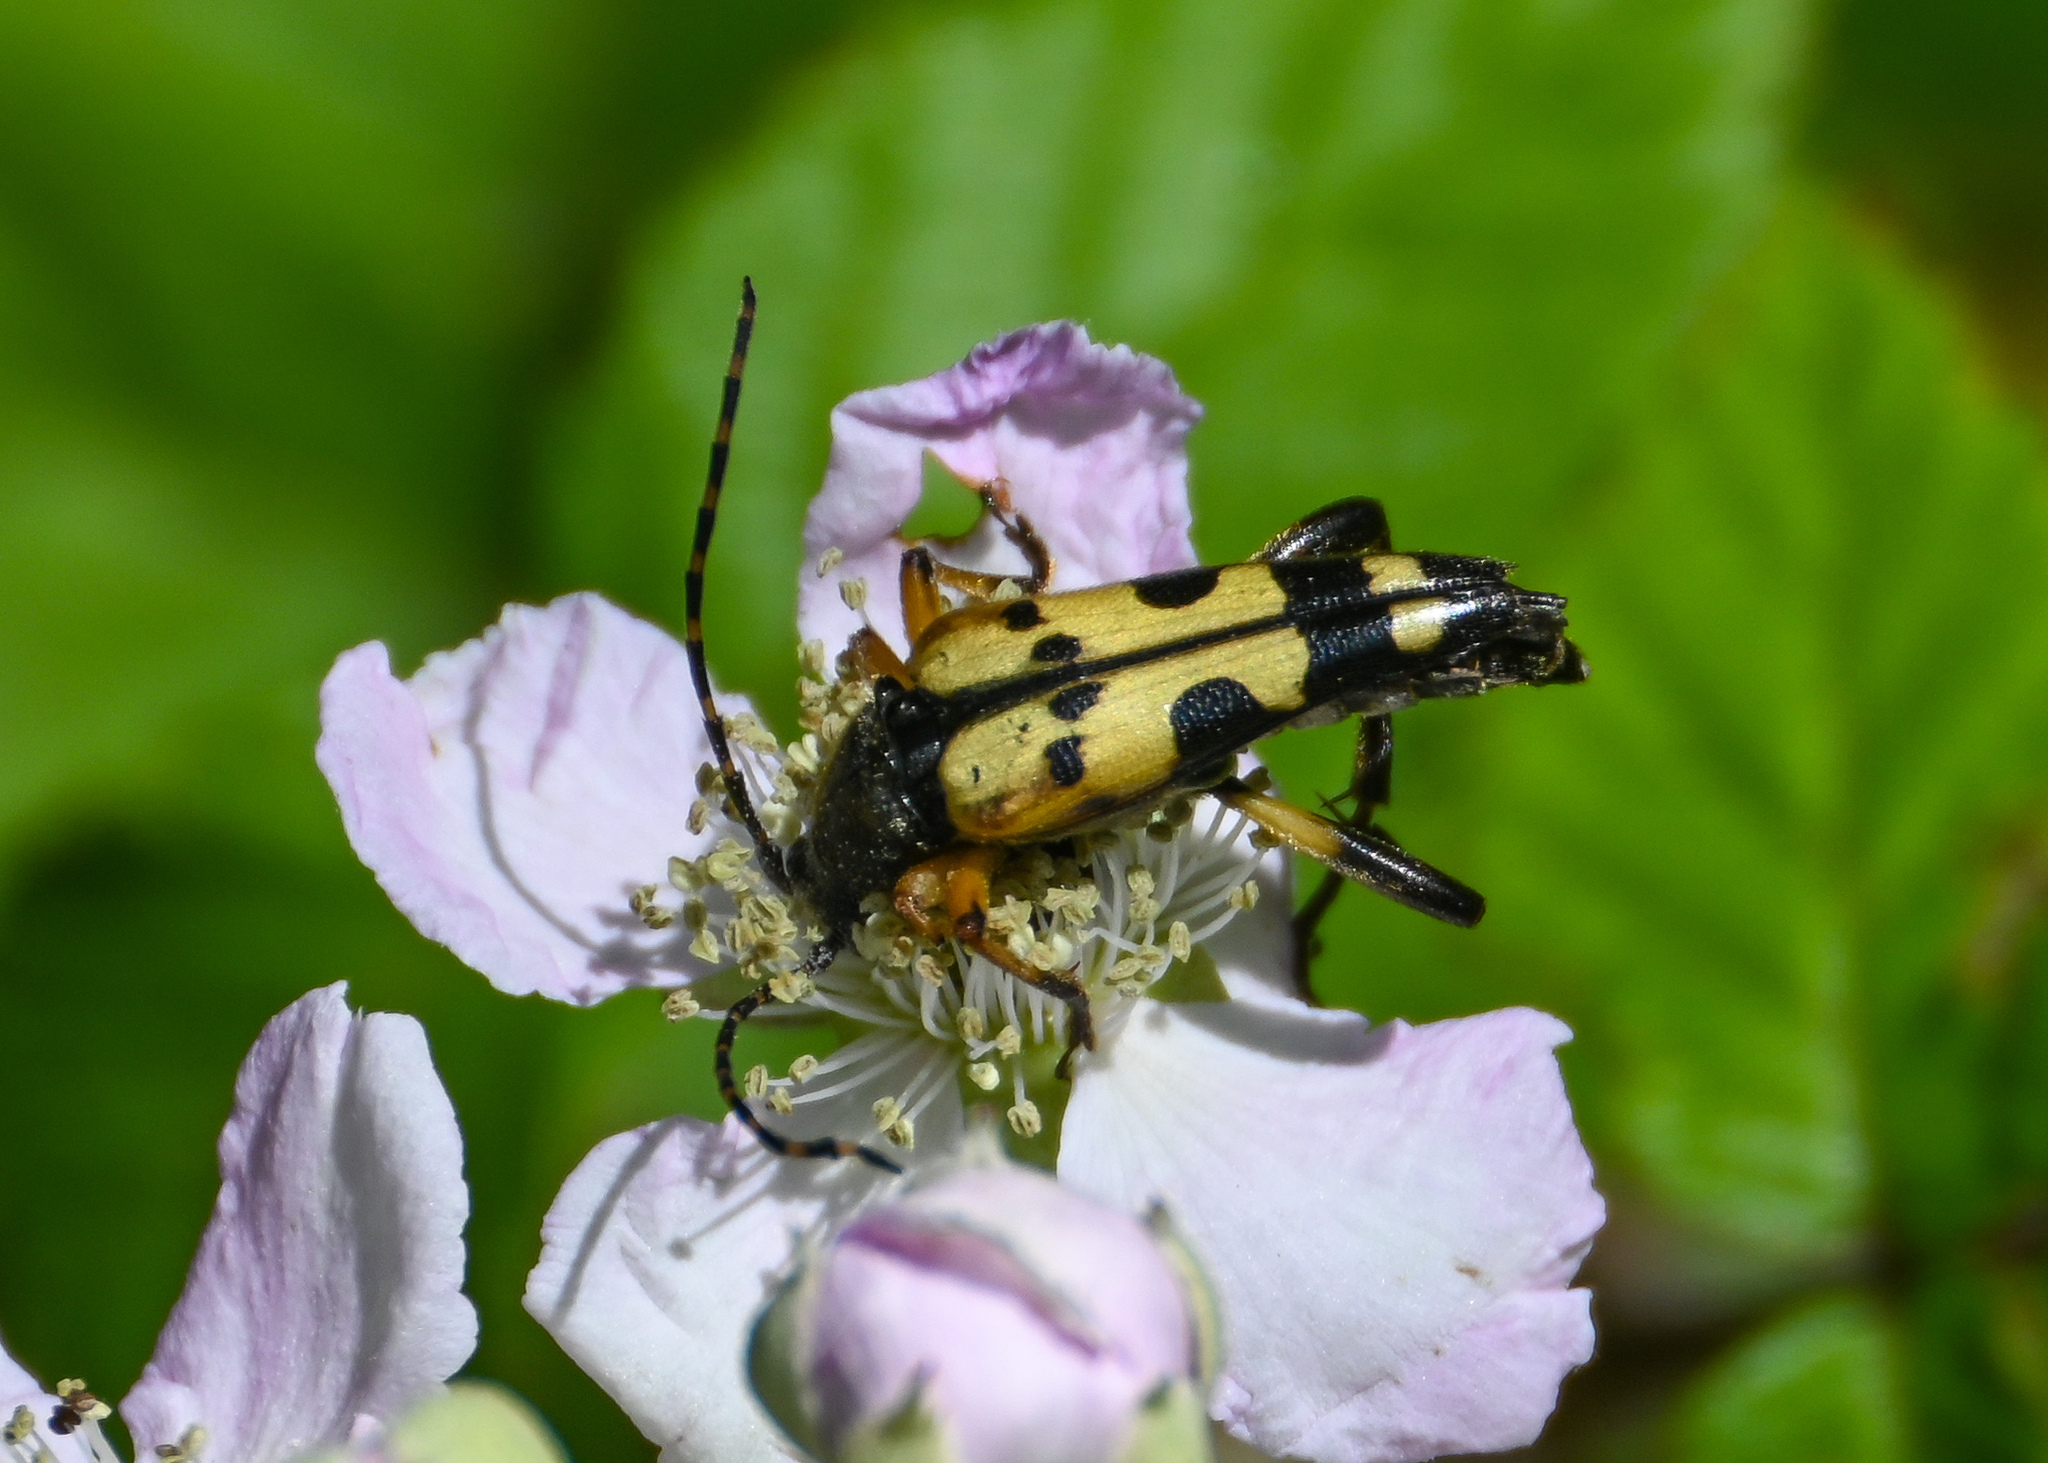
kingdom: Animalia
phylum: Arthropoda
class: Insecta
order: Coleoptera
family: Cerambycidae
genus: Rutpela
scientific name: Rutpela maculata
